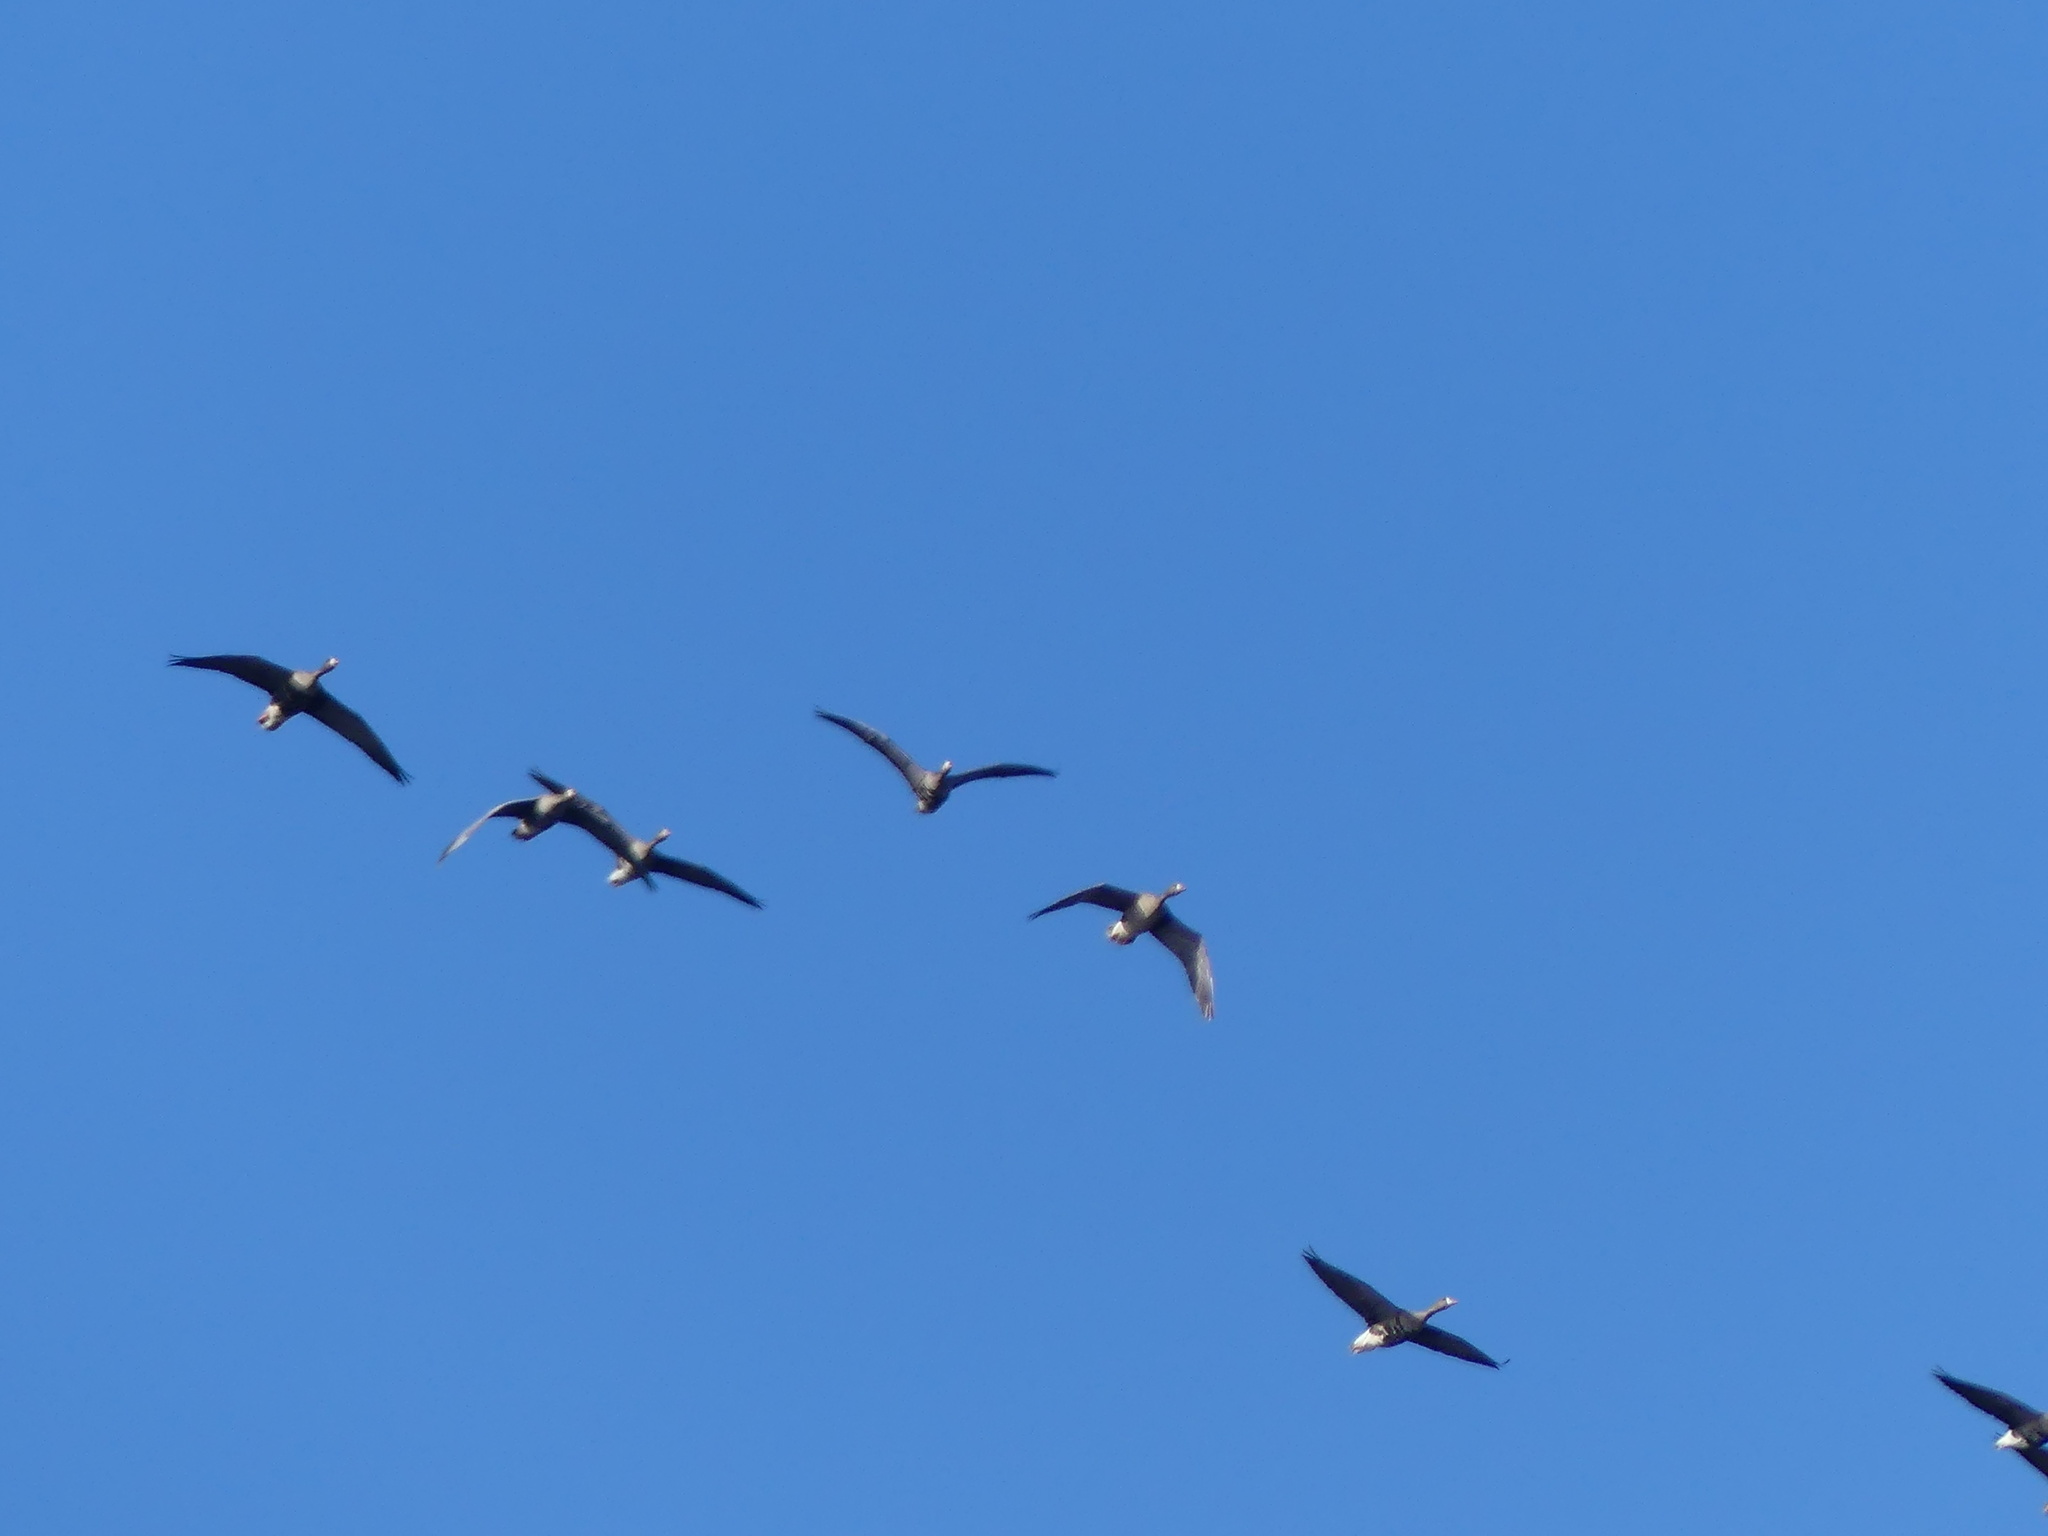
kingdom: Animalia
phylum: Chordata
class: Aves
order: Anseriformes
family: Anatidae
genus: Anser
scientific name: Anser albifrons
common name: Greater white-fronted goose
